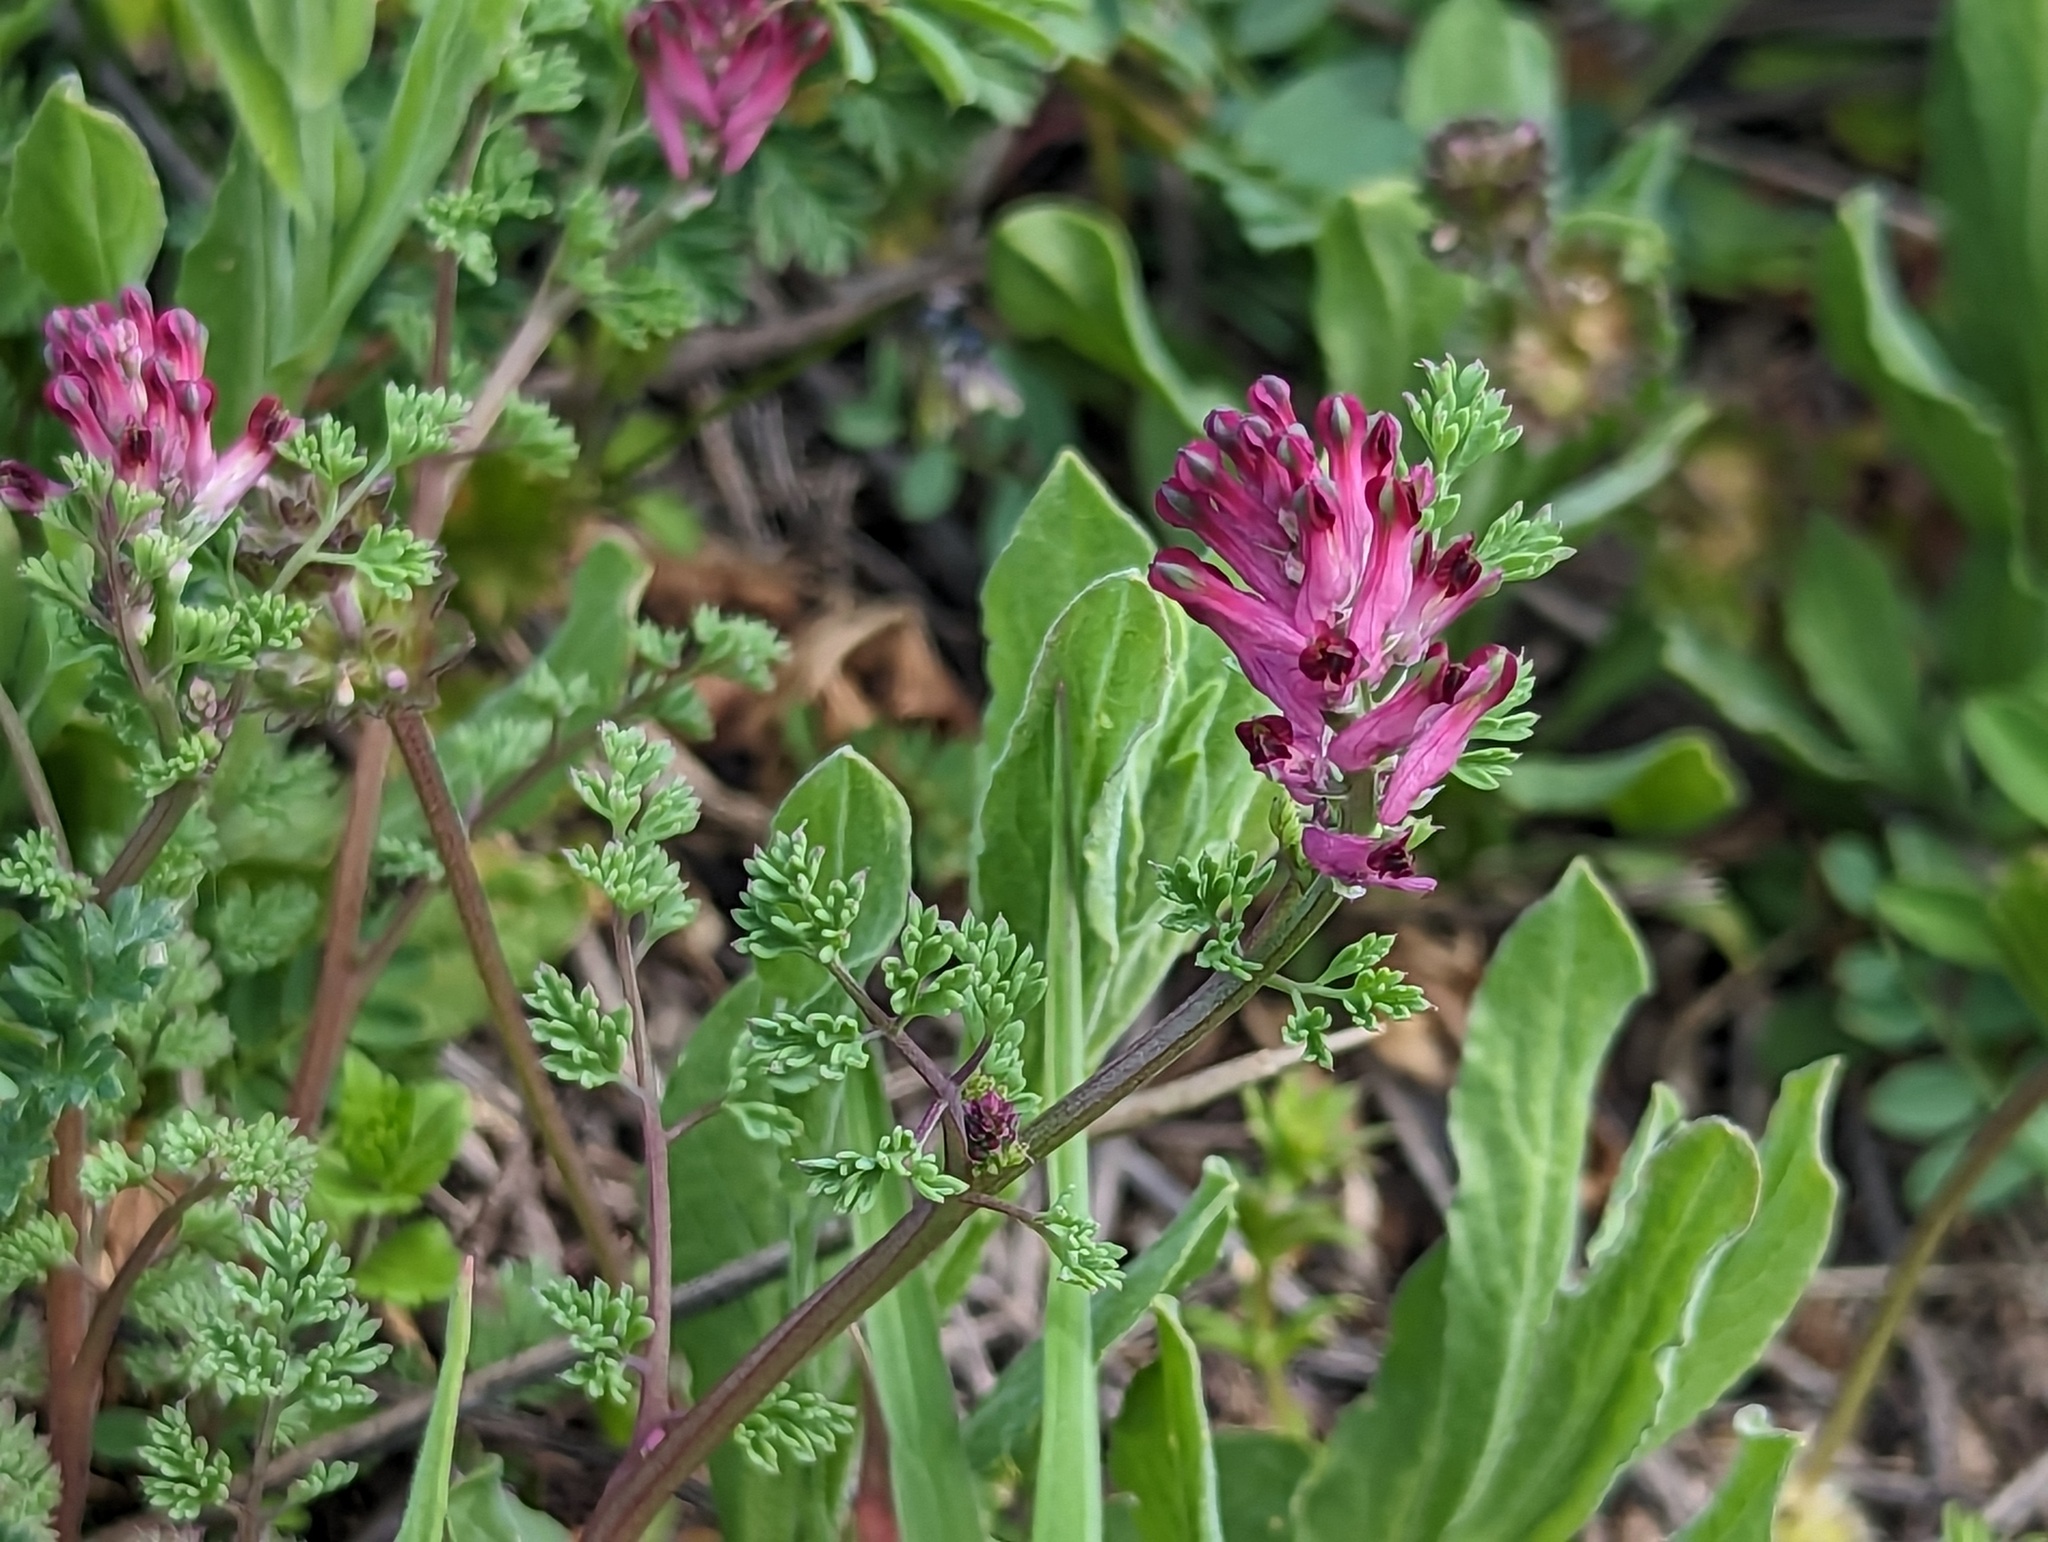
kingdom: Plantae
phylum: Tracheophyta
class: Magnoliopsida
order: Ranunculales
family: Papaveraceae
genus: Fumaria
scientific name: Fumaria officinalis
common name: Common fumitory
